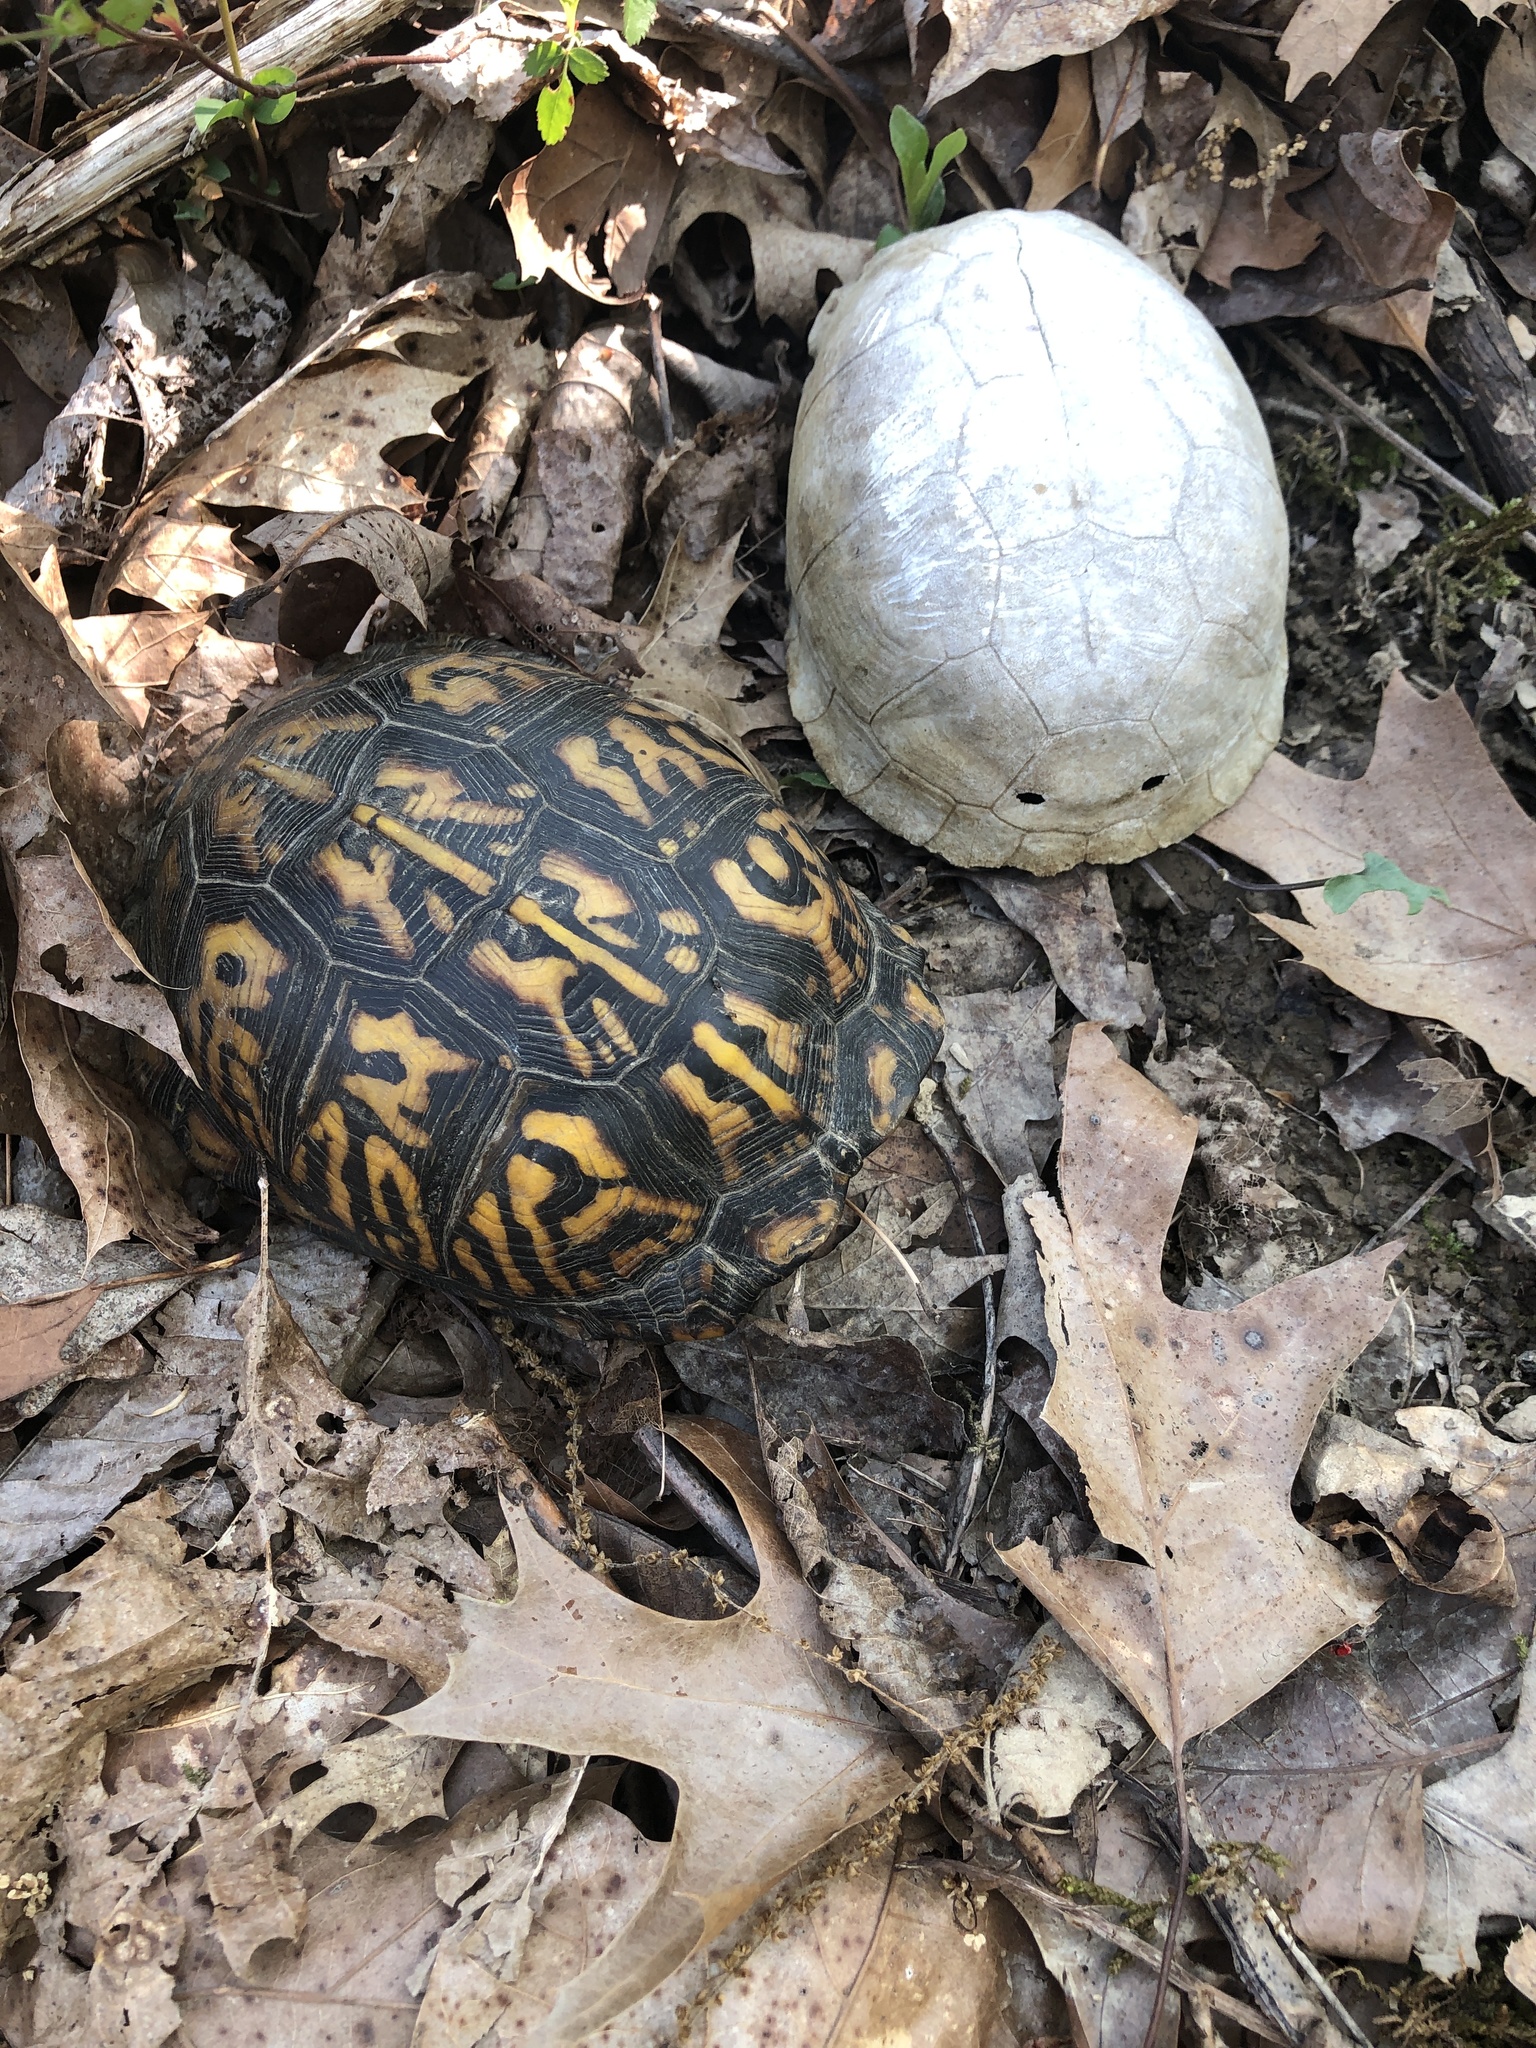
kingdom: Animalia
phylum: Chordata
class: Testudines
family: Emydidae
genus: Terrapene
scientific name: Terrapene carolina
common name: Common box turtle
